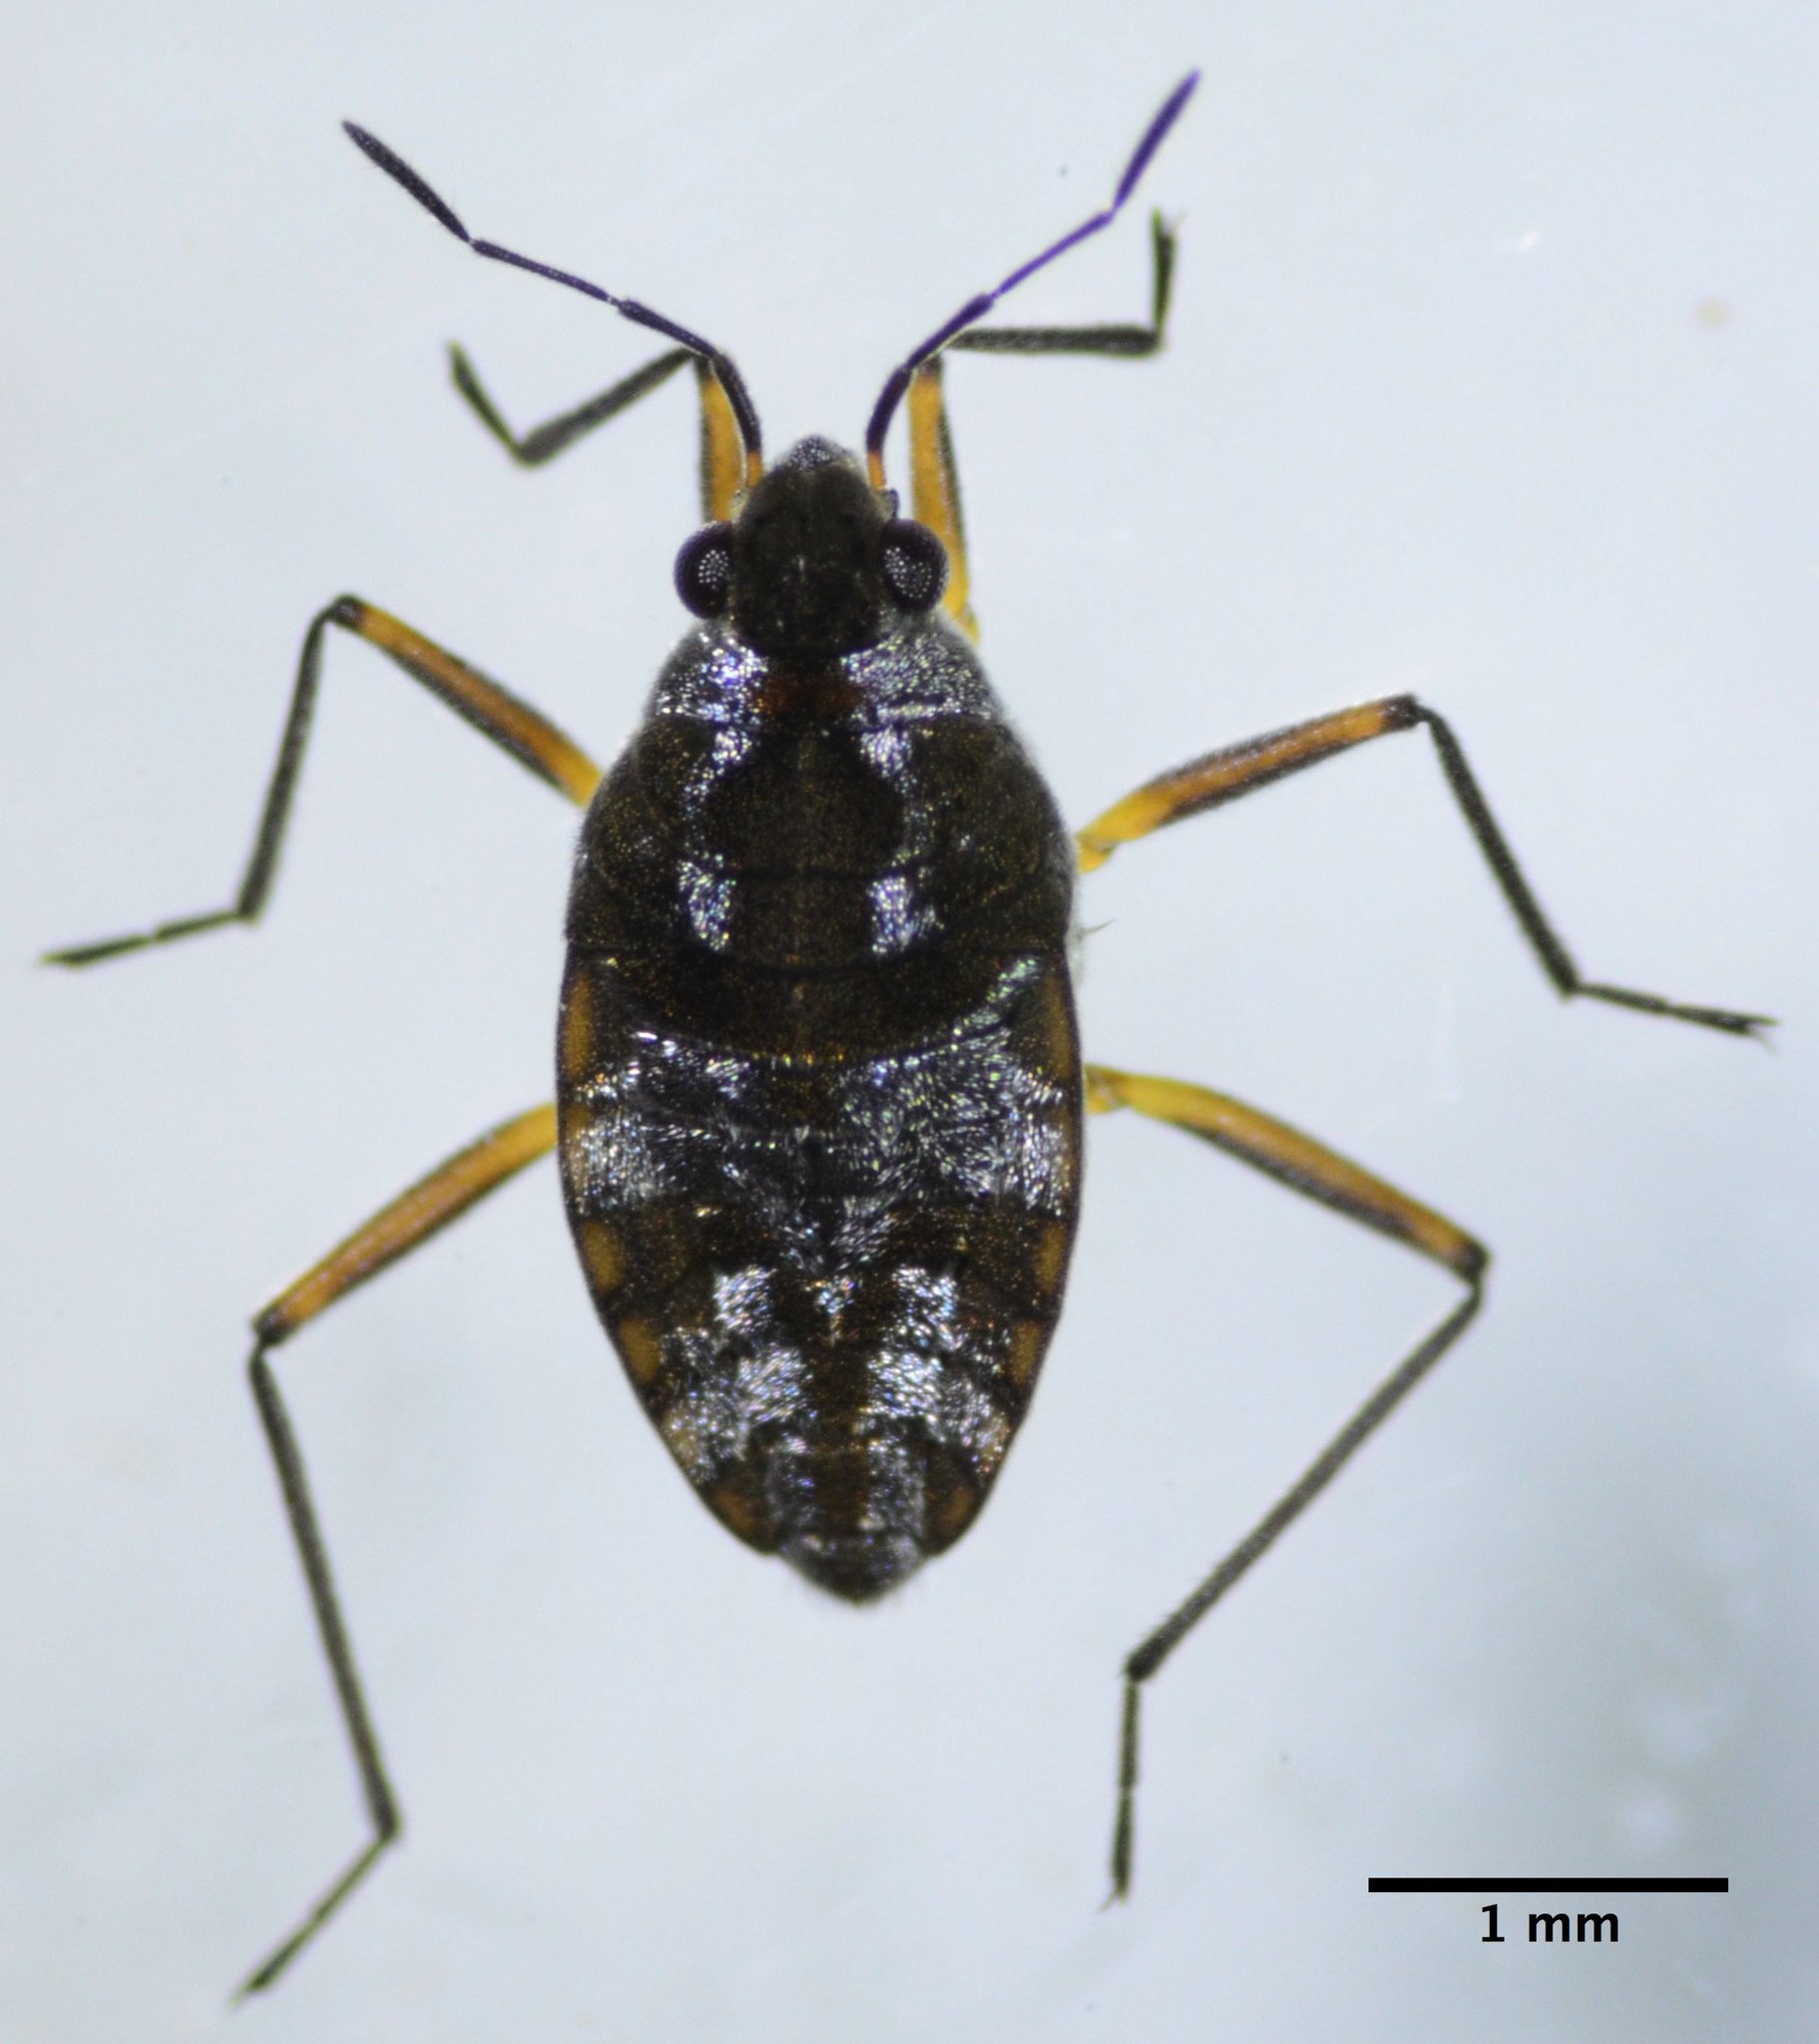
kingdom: Animalia
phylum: Arthropoda
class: Insecta
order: Hemiptera
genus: Kirkaldya
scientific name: Kirkaldya
